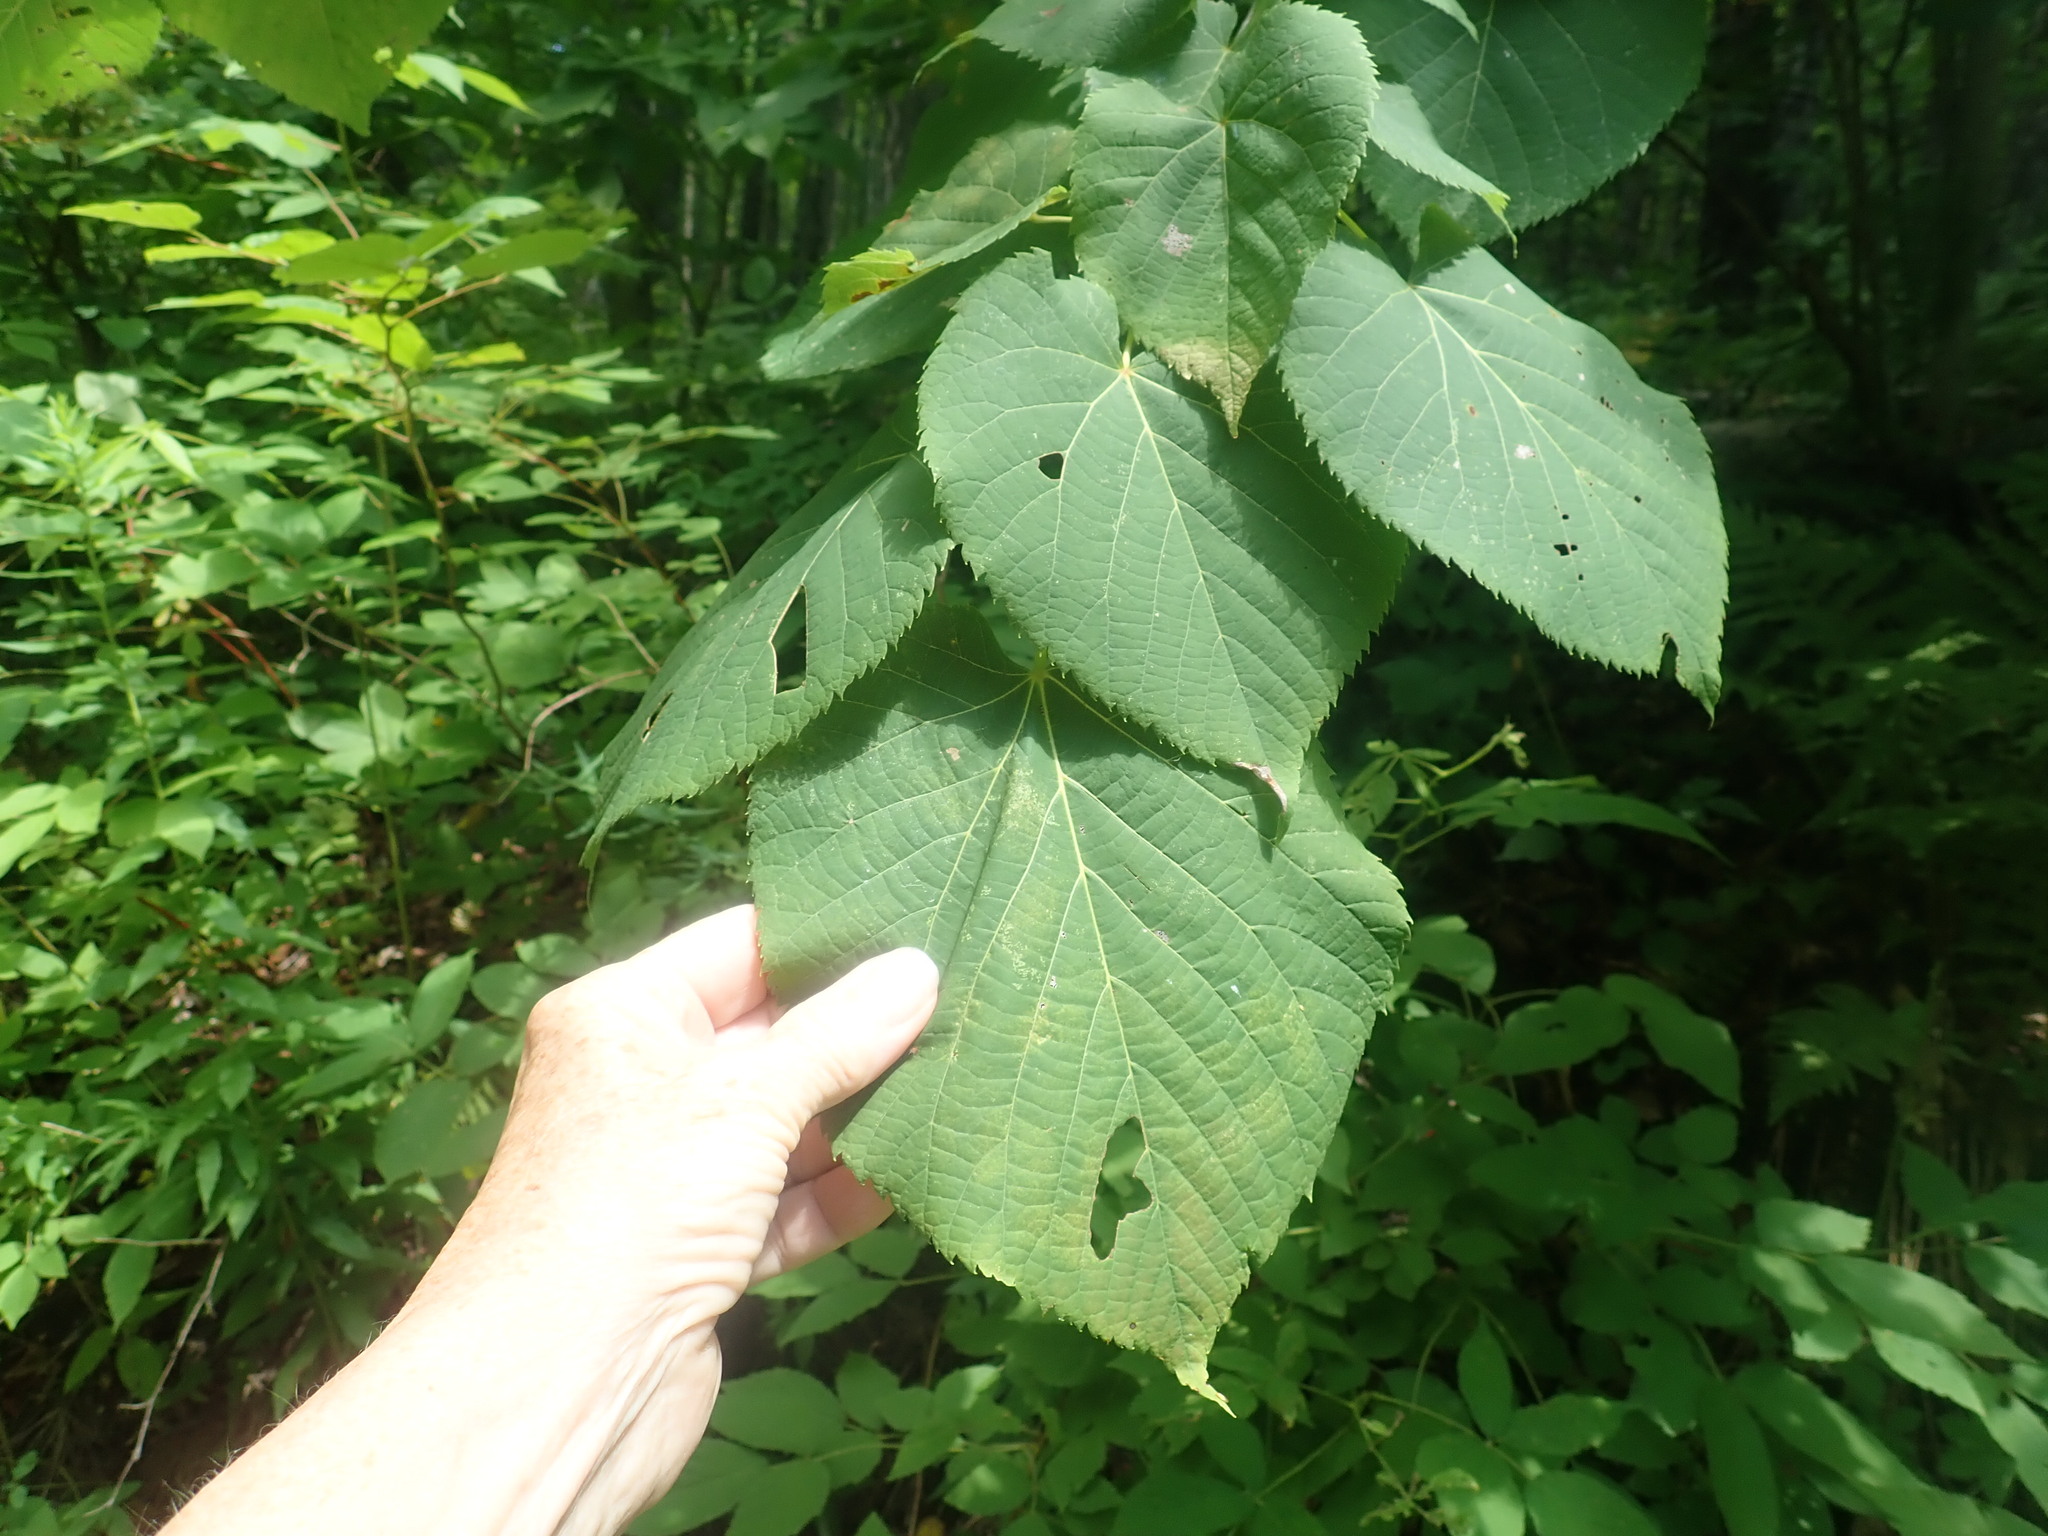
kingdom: Plantae
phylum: Tracheophyta
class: Magnoliopsida
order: Malvales
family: Malvaceae
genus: Tilia
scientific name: Tilia americana
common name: Basswood
